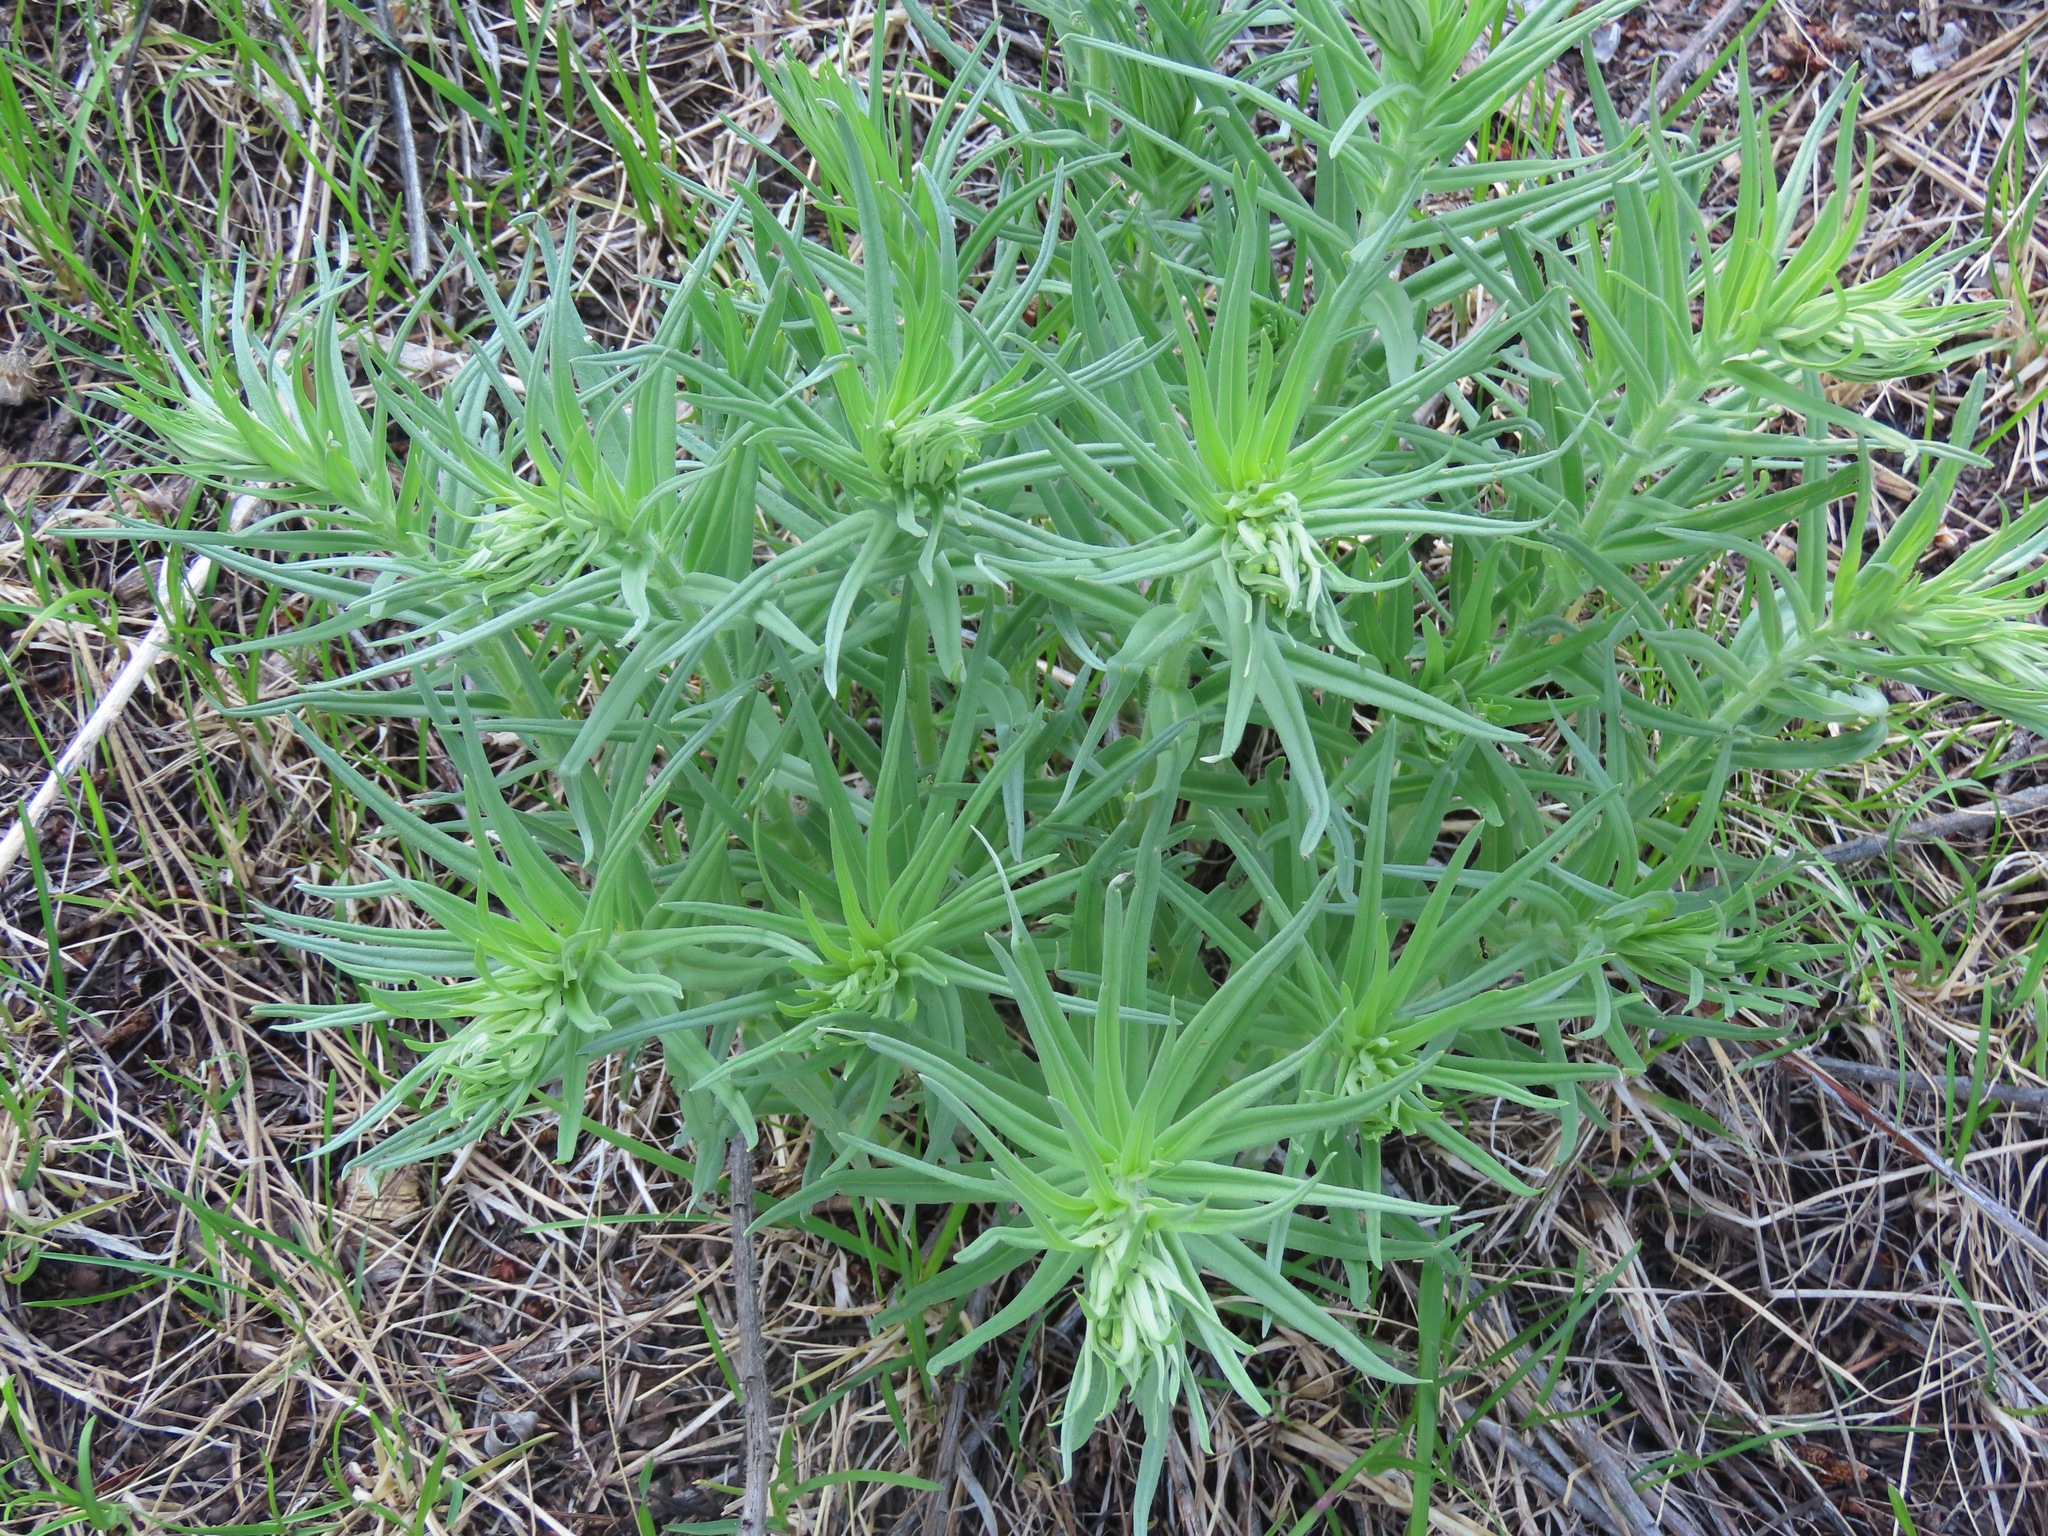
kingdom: Plantae
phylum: Tracheophyta
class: Magnoliopsida
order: Boraginales
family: Boraginaceae
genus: Lithospermum
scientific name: Lithospermum ruderale
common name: Western gromwell
